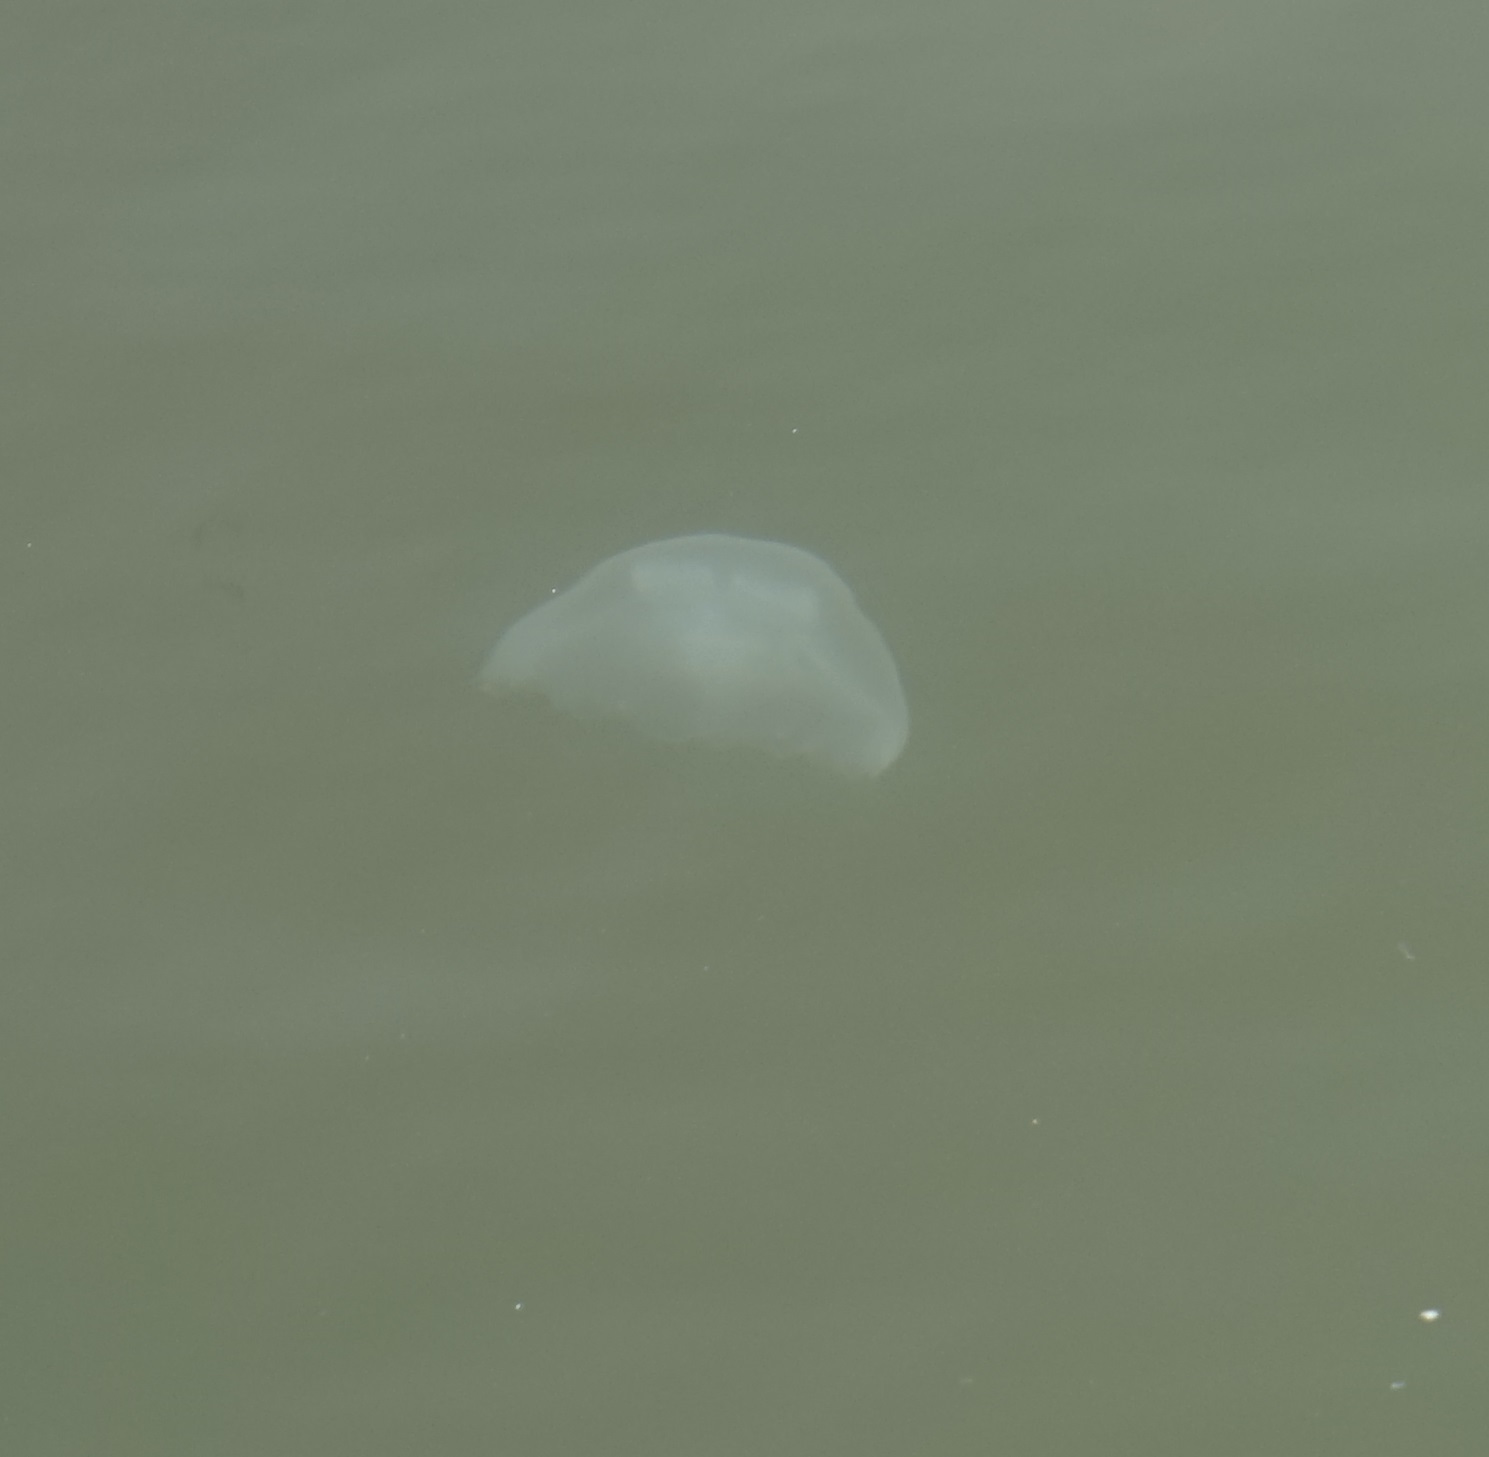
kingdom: Animalia
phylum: Cnidaria
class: Scyphozoa
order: Semaeostomeae
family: Ulmaridae
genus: Aurelia
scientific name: Aurelia coerulea
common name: Moon jellyfish
